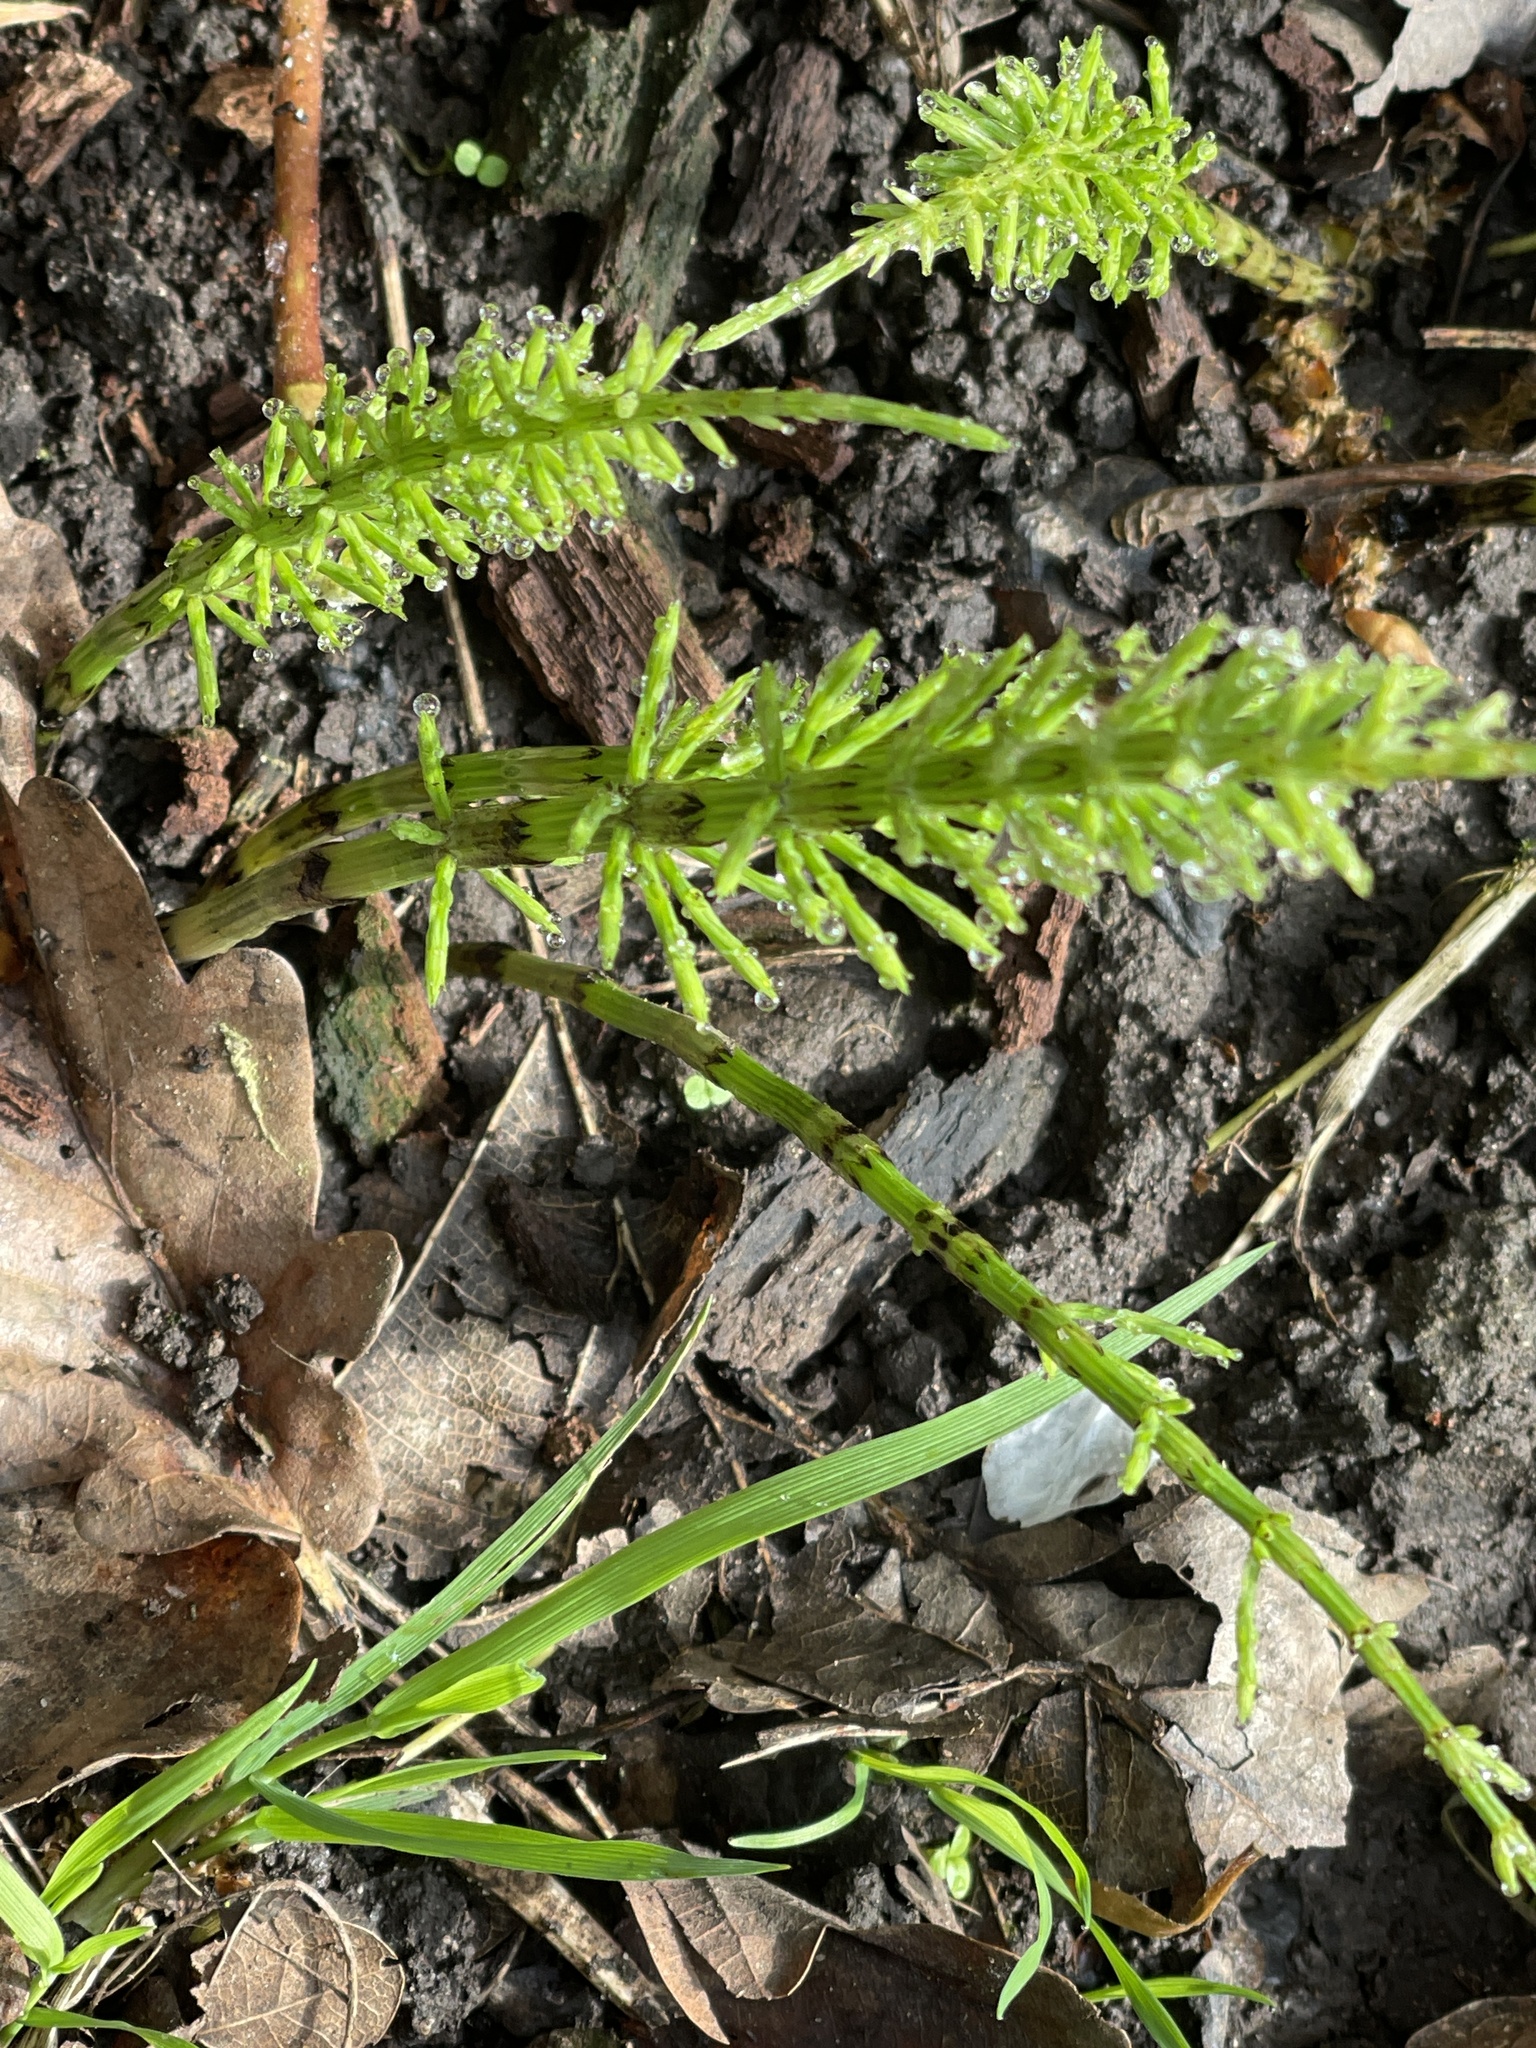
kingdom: Plantae
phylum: Tracheophyta
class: Polypodiopsida
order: Equisetales
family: Equisetaceae
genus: Equisetum
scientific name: Equisetum arvense
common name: Field horsetail
